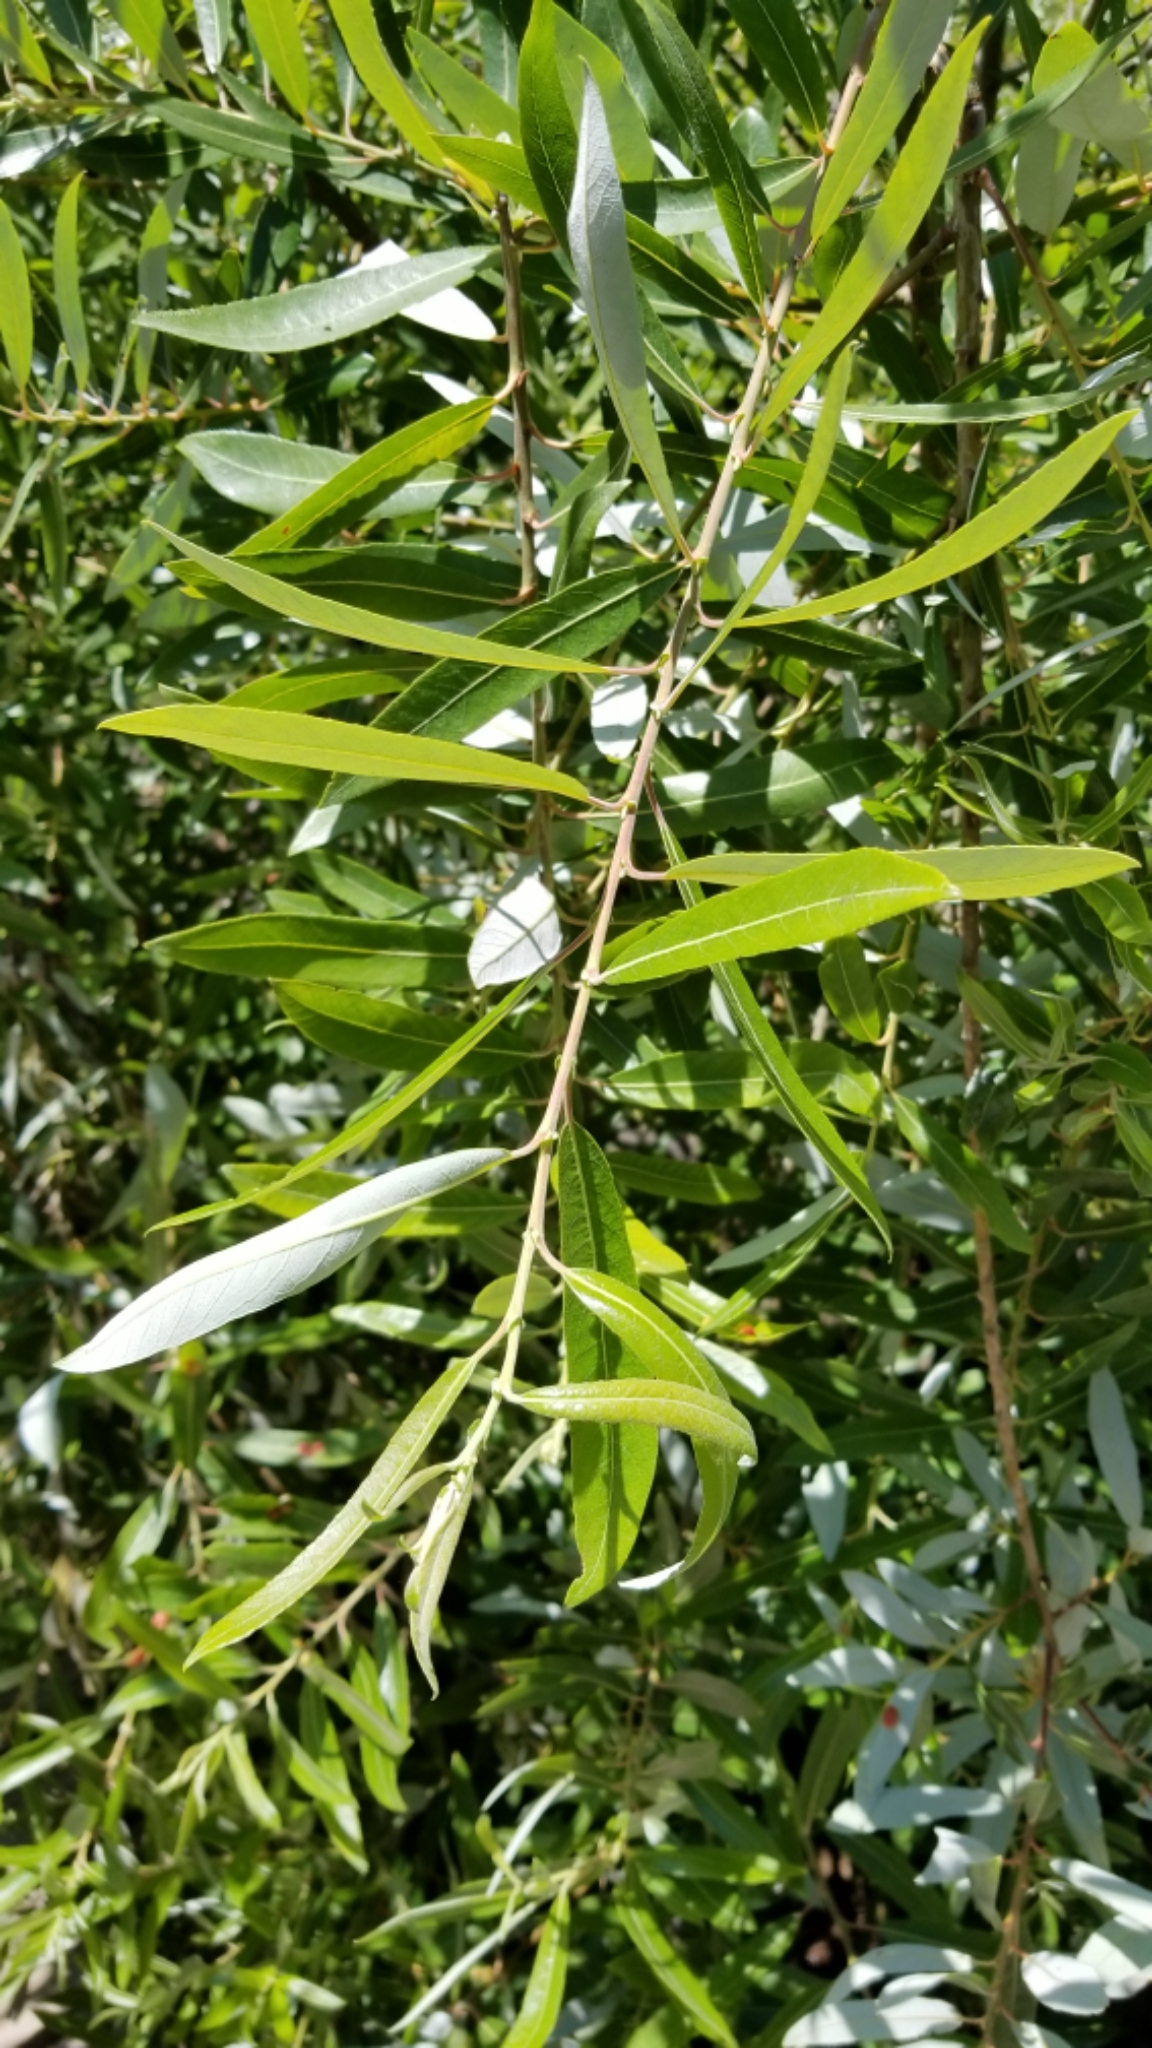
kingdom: Plantae
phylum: Tracheophyta
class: Magnoliopsida
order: Malpighiales
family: Salicaceae
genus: Salix
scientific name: Salix lasiolepis
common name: Arroyo willow
